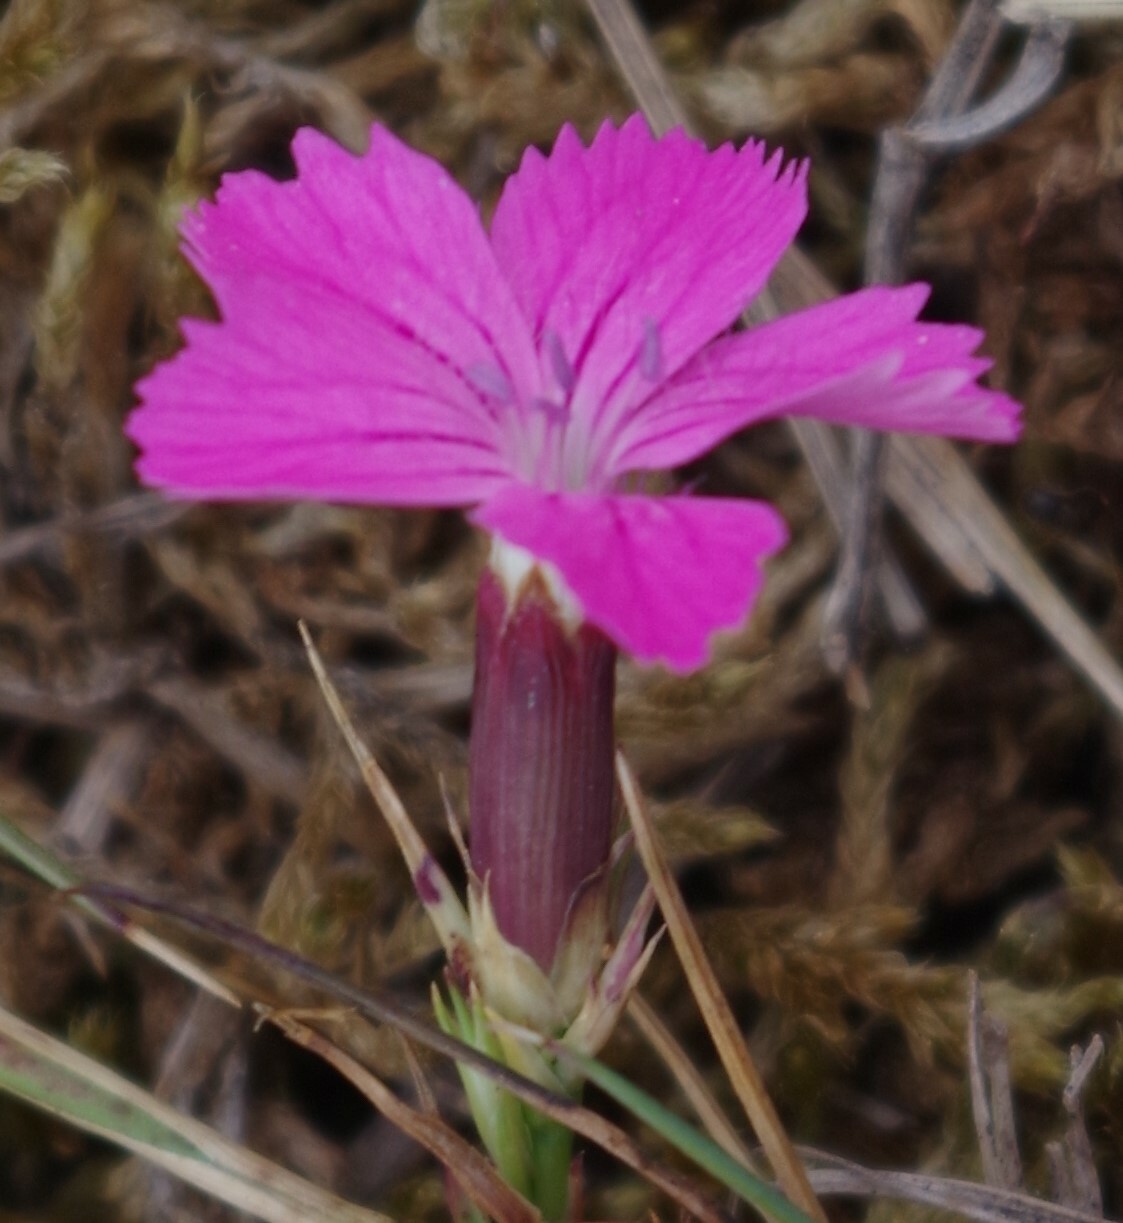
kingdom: Plantae
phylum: Tracheophyta
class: Magnoliopsida
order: Caryophyllales
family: Caryophyllaceae
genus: Dianthus
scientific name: Dianthus carthusianorum
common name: Carthusian pink
